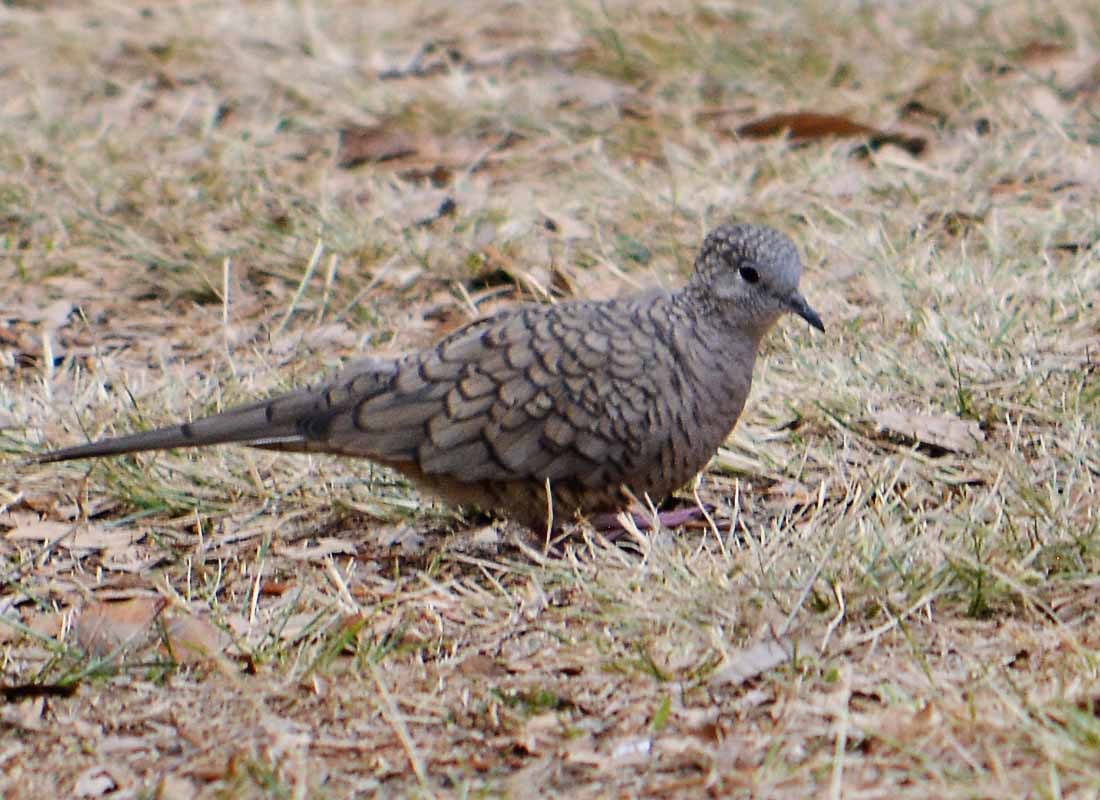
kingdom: Animalia
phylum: Chordata
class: Aves
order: Columbiformes
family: Columbidae
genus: Columbina
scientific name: Columbina inca
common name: Inca dove
